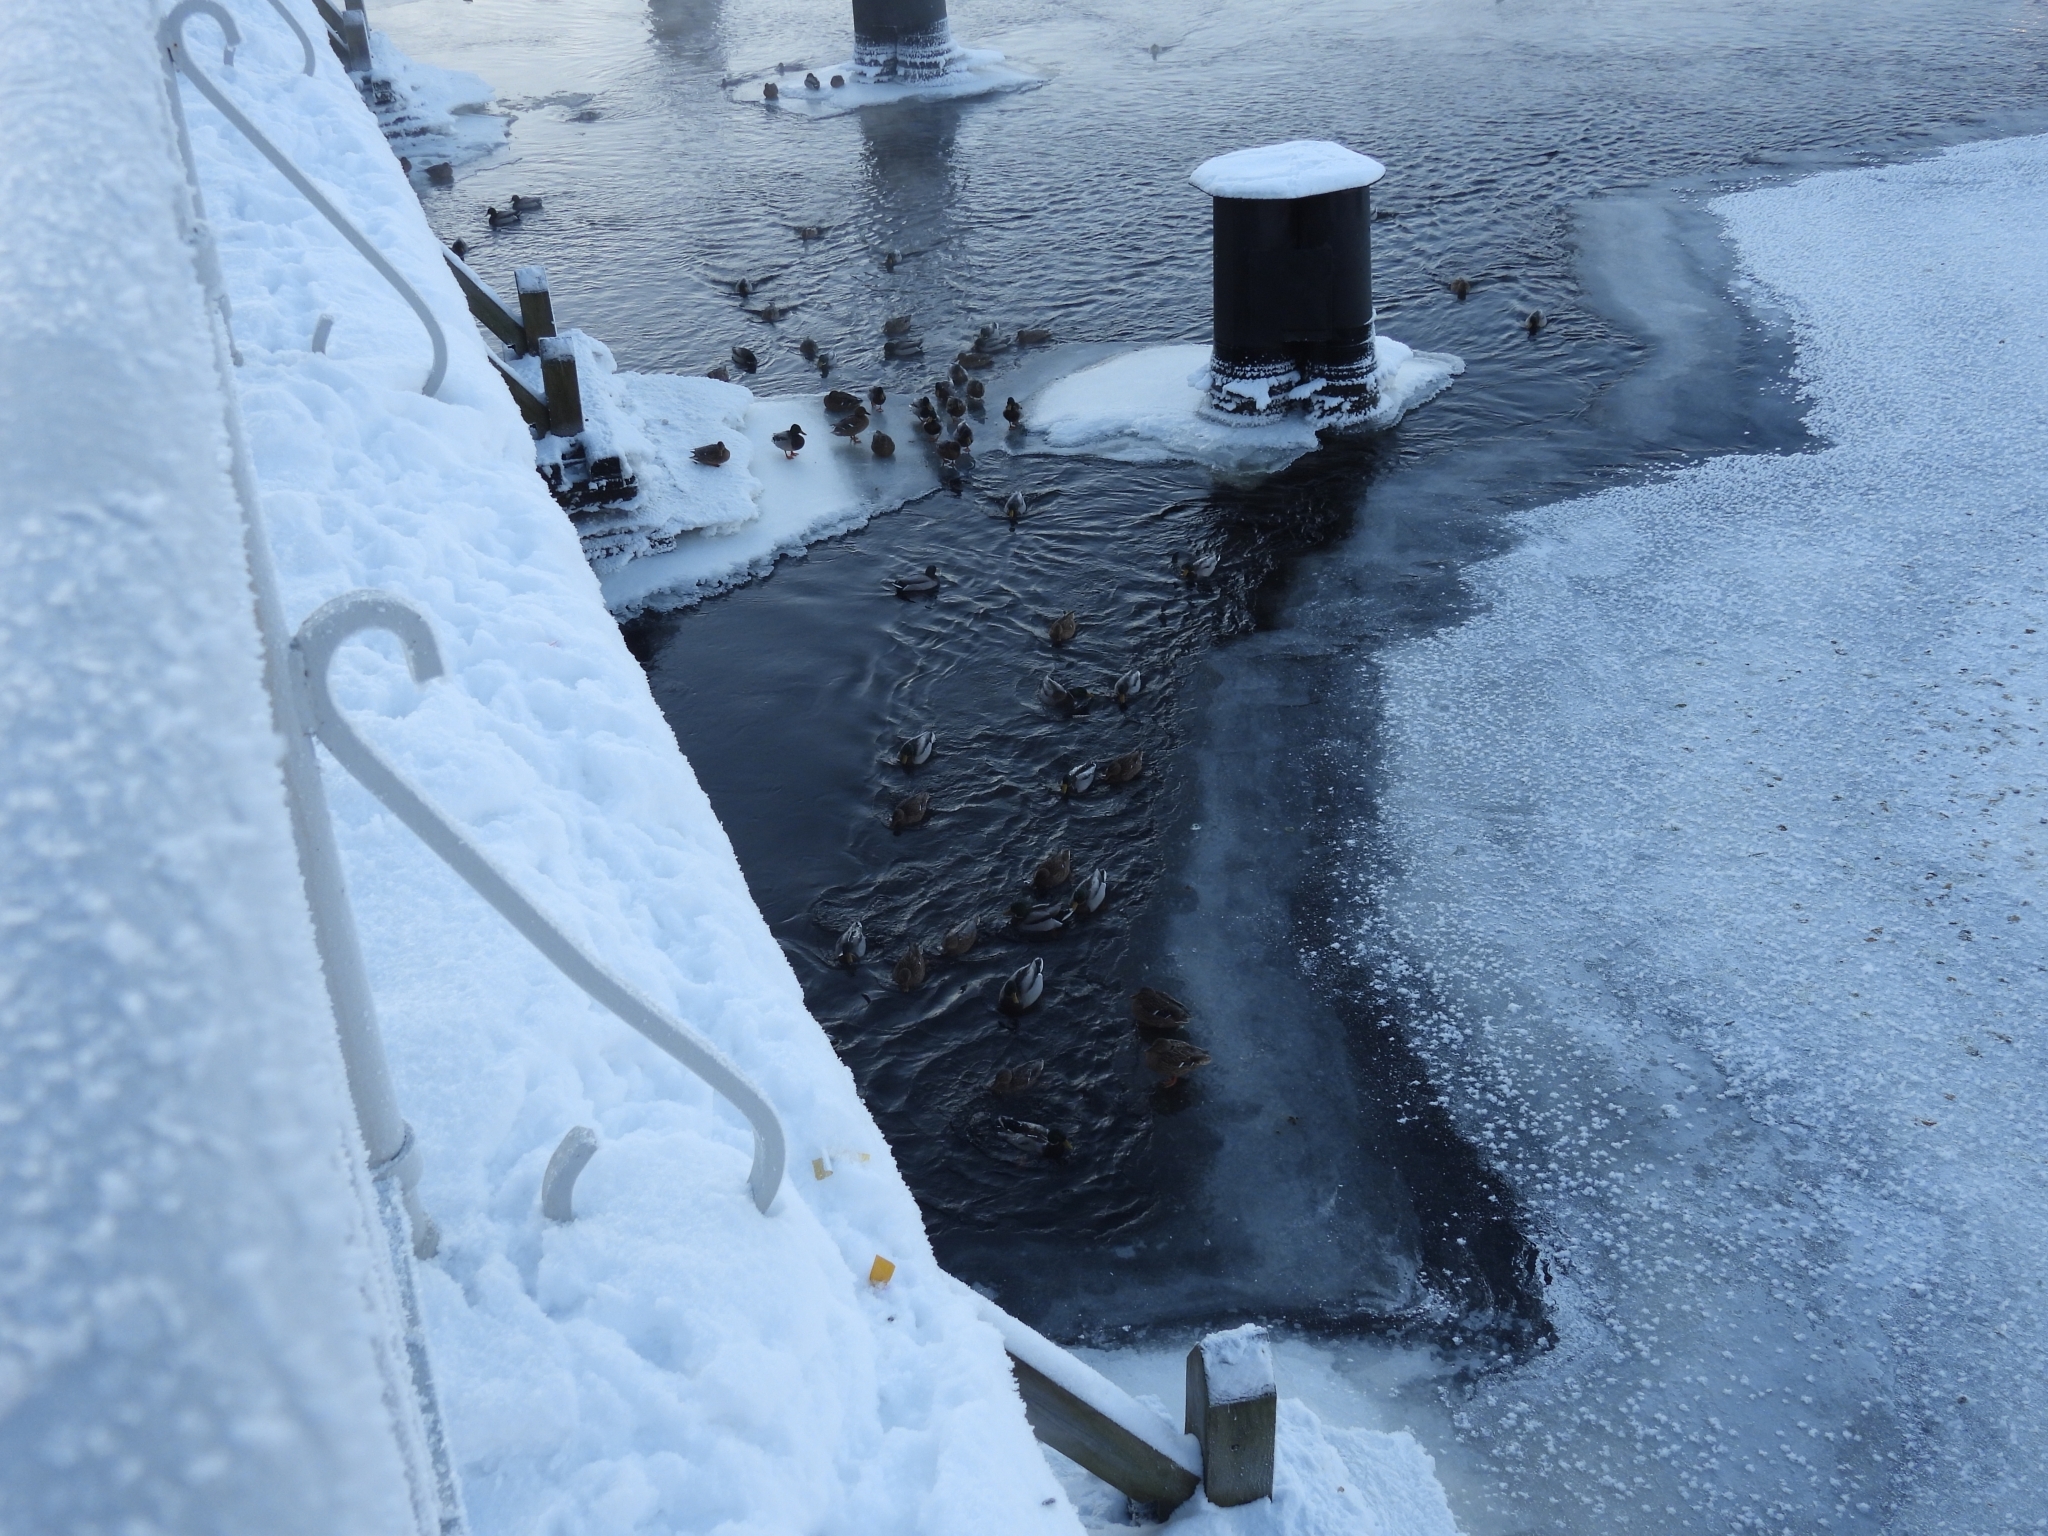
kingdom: Animalia
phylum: Chordata
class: Aves
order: Anseriformes
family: Anatidae
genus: Anas
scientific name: Anas platyrhynchos
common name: Mallard
